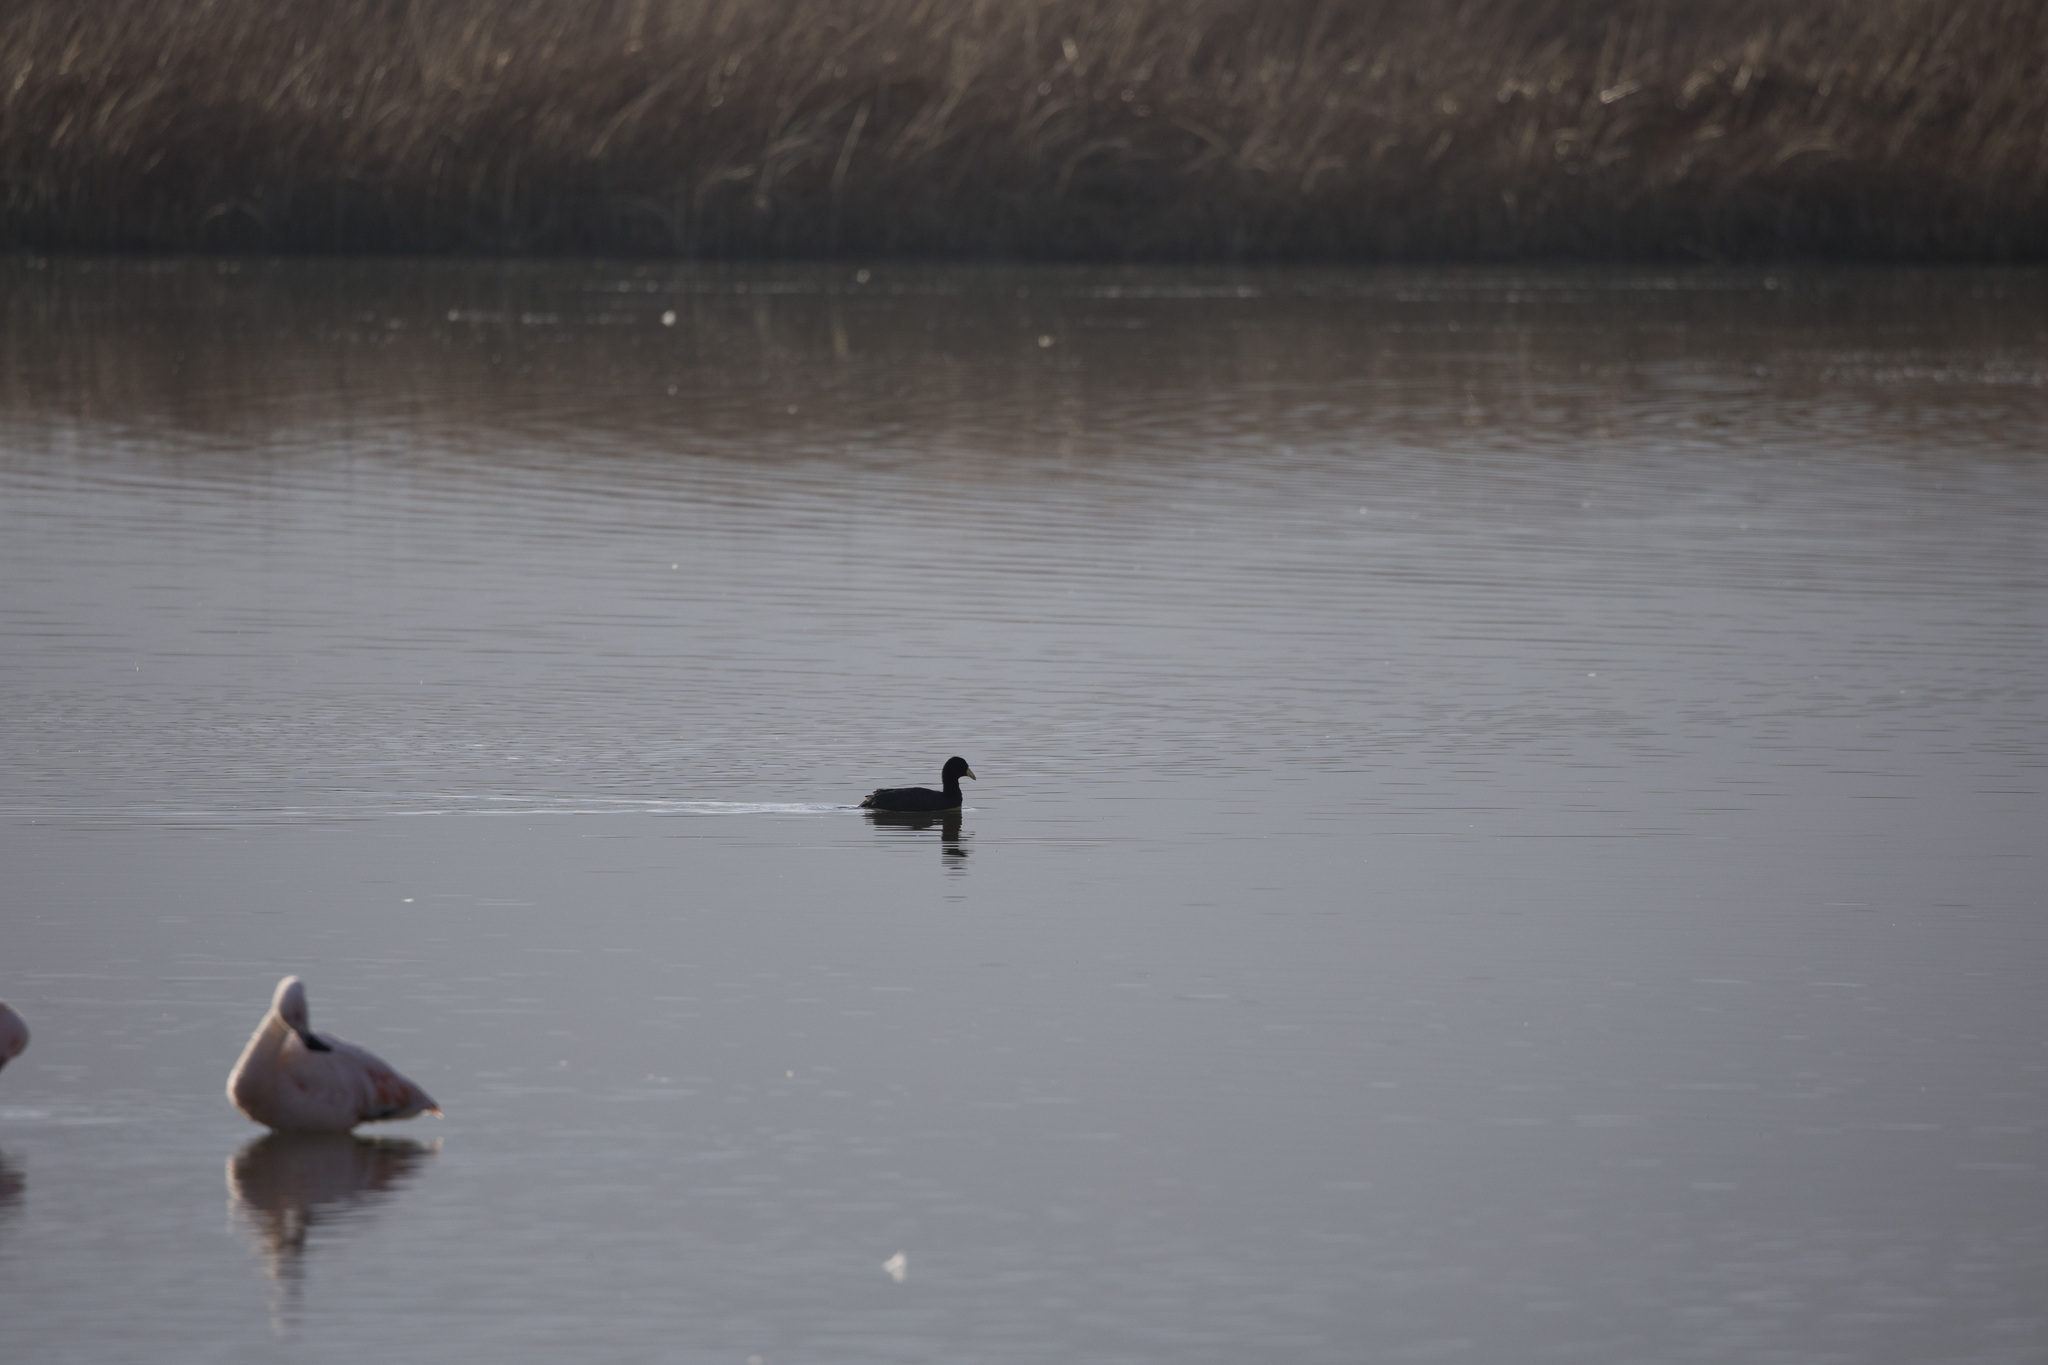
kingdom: Animalia
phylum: Chordata
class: Aves
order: Gruiformes
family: Rallidae
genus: Fulica
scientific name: Fulica ardesiaca
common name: Andean coot
